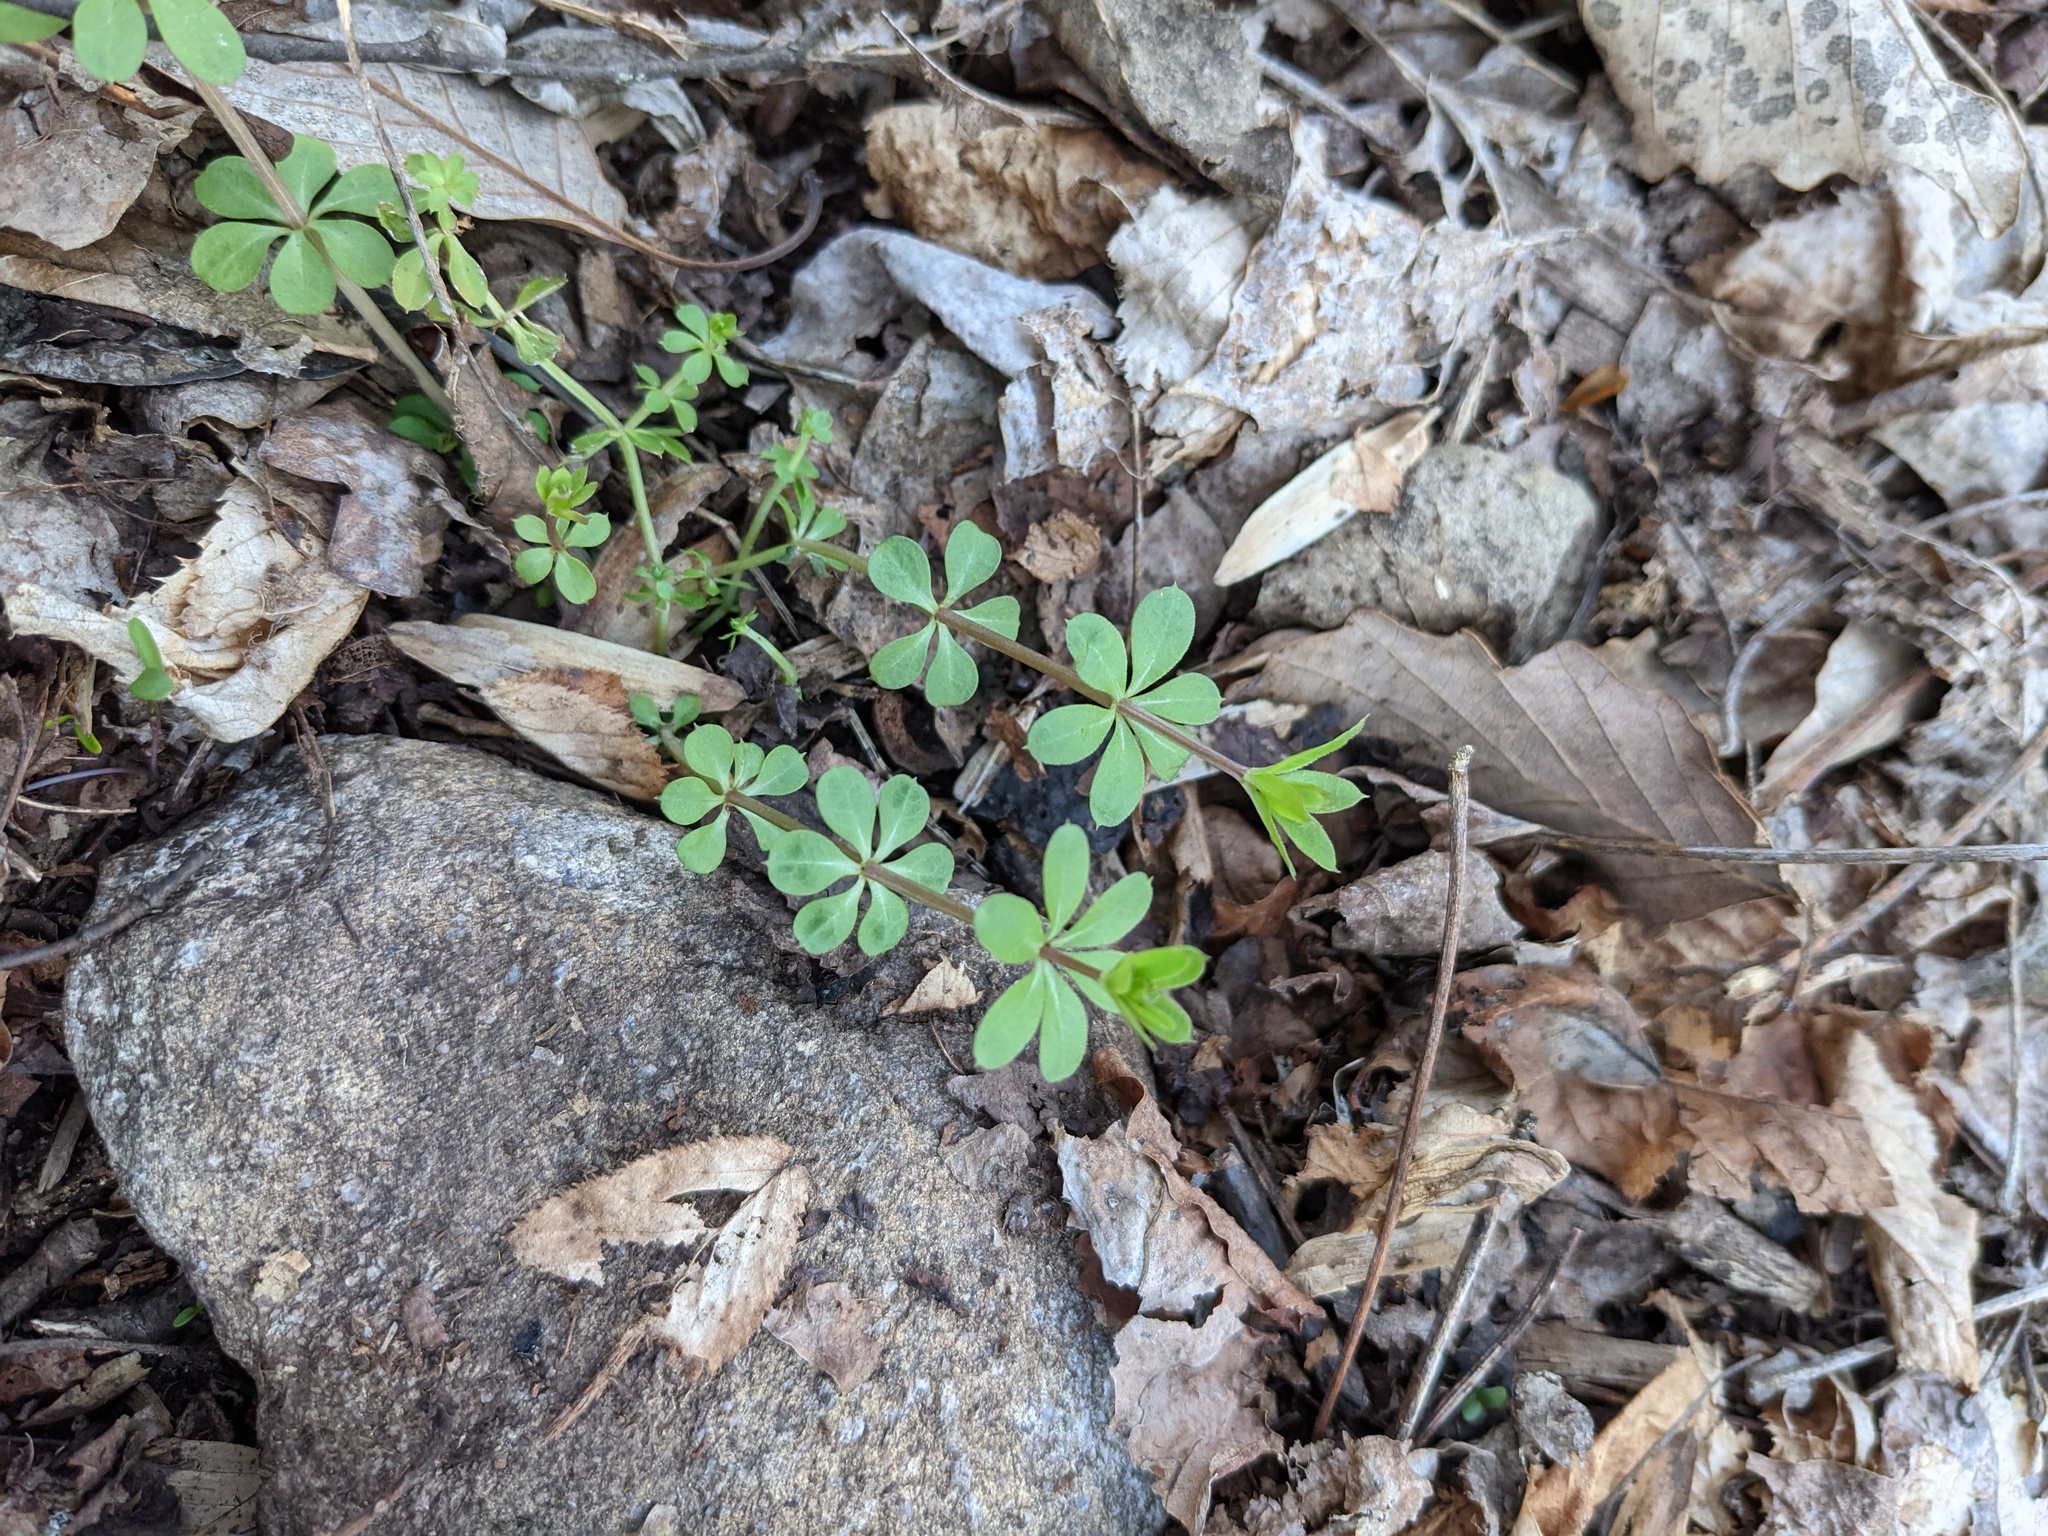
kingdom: Plantae
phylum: Tracheophyta
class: Magnoliopsida
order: Gentianales
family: Rubiaceae
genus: Galium
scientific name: Galium triflorum
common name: Fragrant bedstraw
